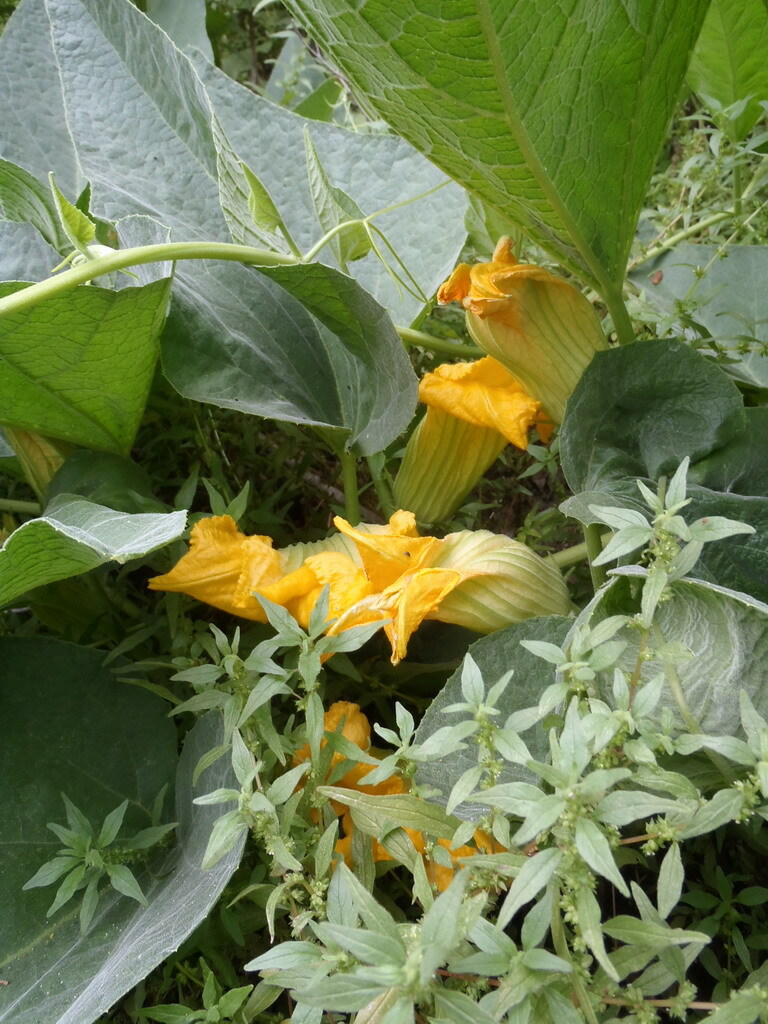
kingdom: Plantae
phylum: Tracheophyta
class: Magnoliopsida
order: Cucurbitales
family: Cucurbitaceae
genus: Cucurbita
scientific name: Cucurbita foetidissima
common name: Buffalo gourd
